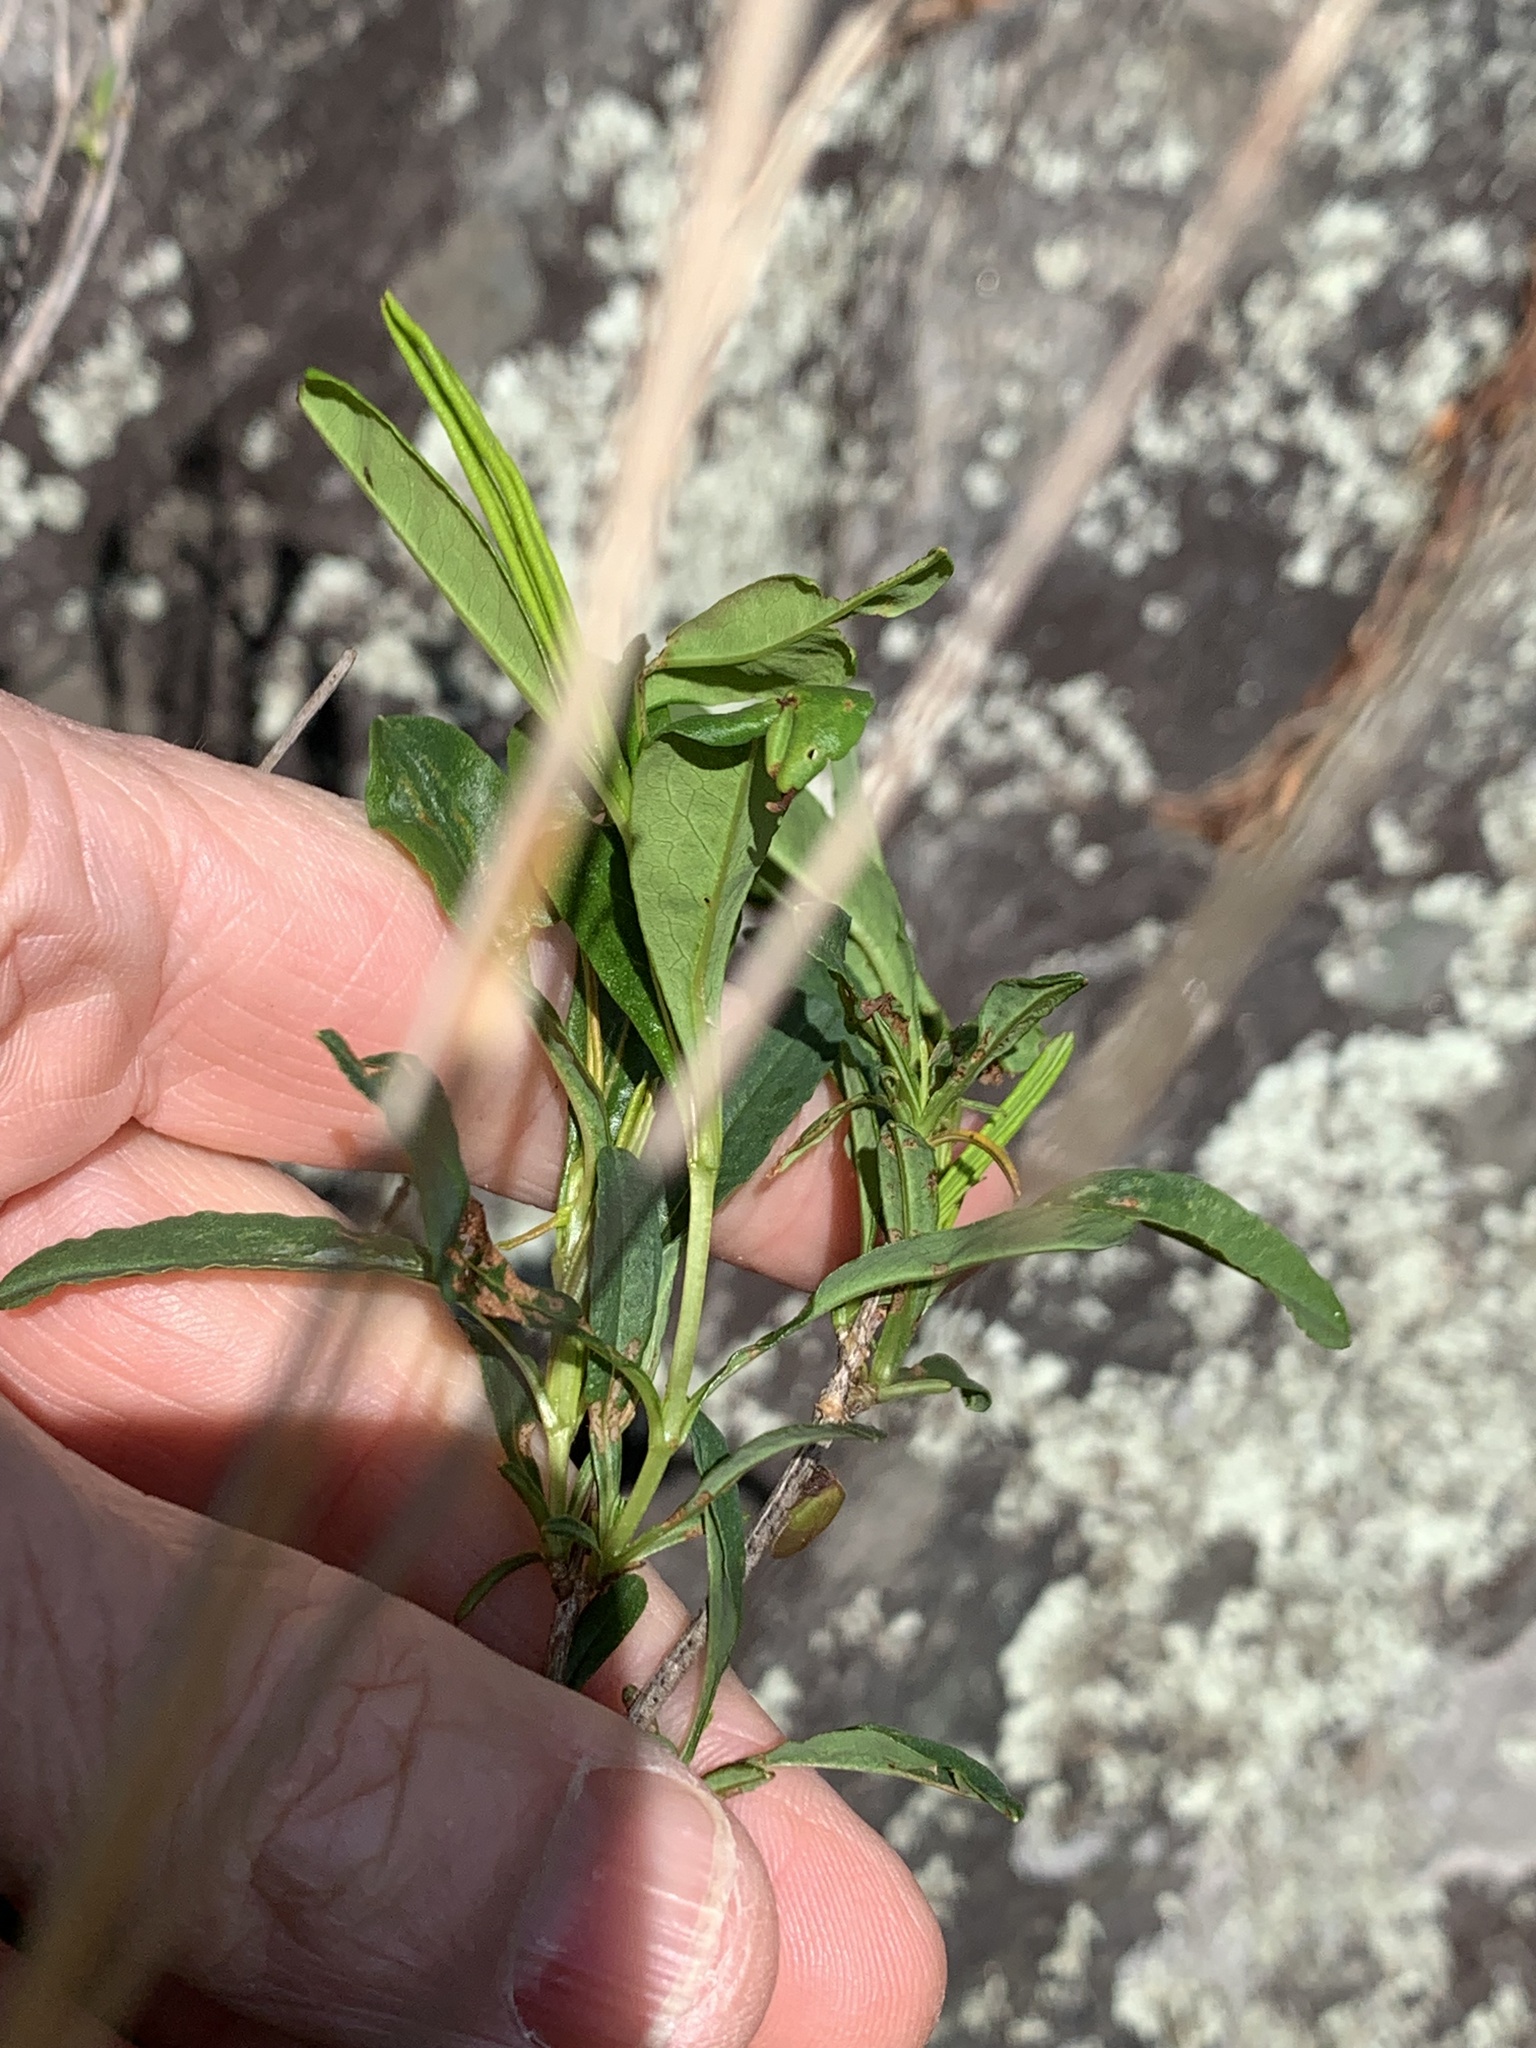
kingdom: Plantae
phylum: Tracheophyta
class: Magnoliopsida
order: Malpighiales
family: Hypericaceae
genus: Hypericum
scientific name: Hypericum prolificum
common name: Shrubby st. john's-wort
